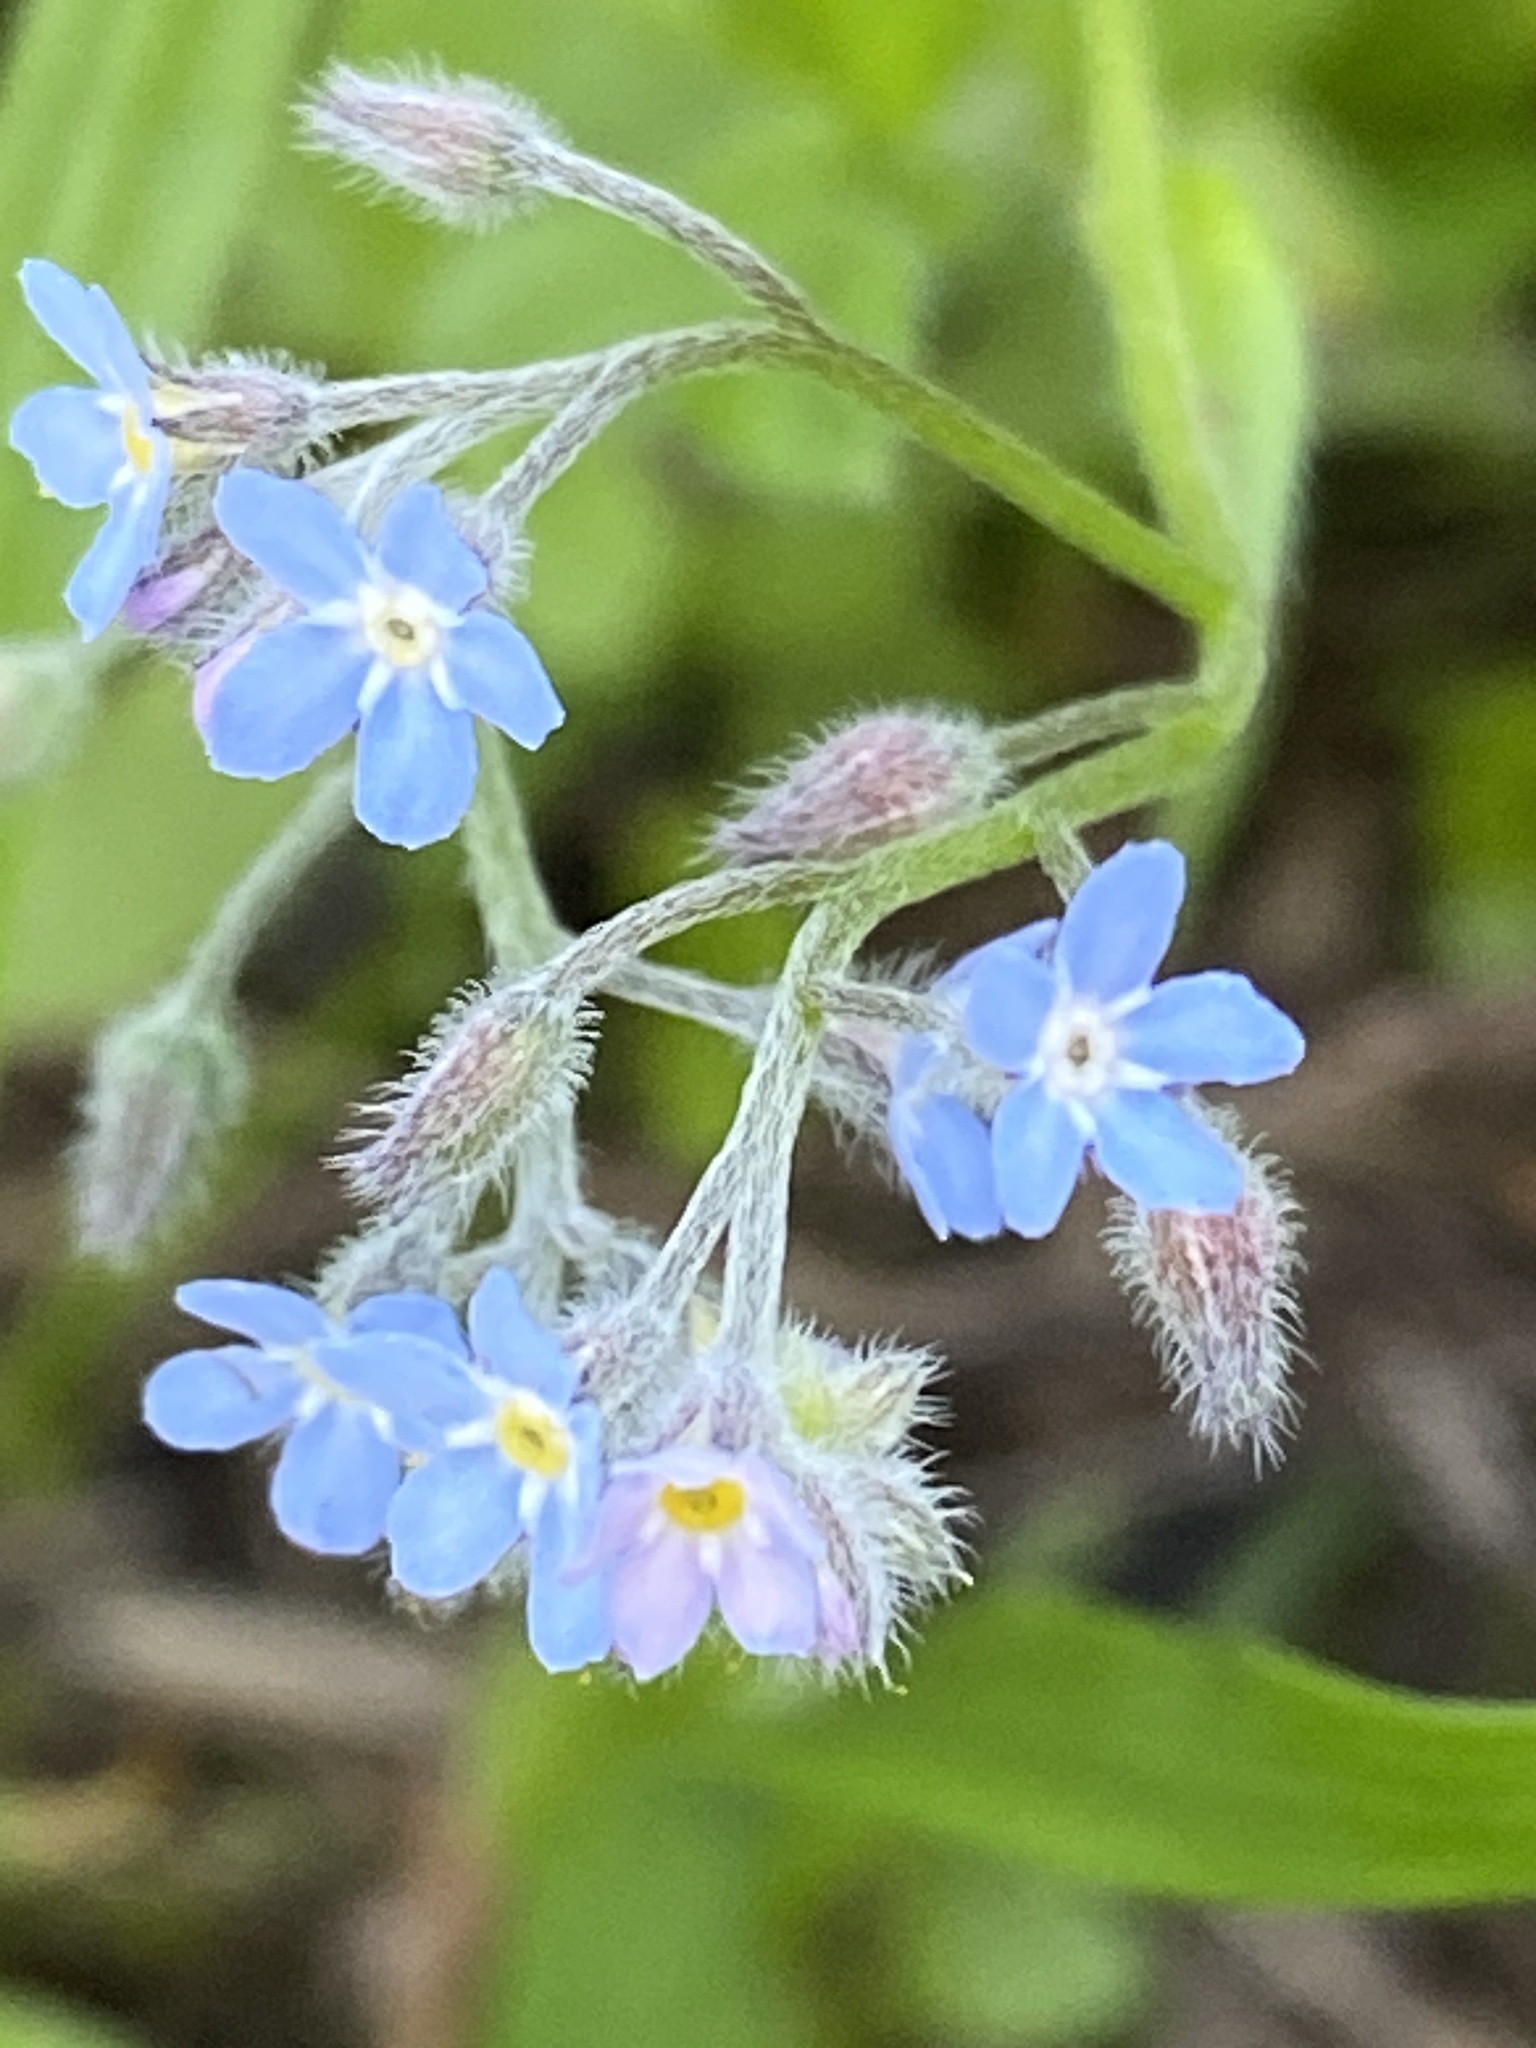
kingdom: Plantae
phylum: Tracheophyta
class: Magnoliopsida
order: Boraginales
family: Boraginaceae
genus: Myosotis
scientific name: Myosotis sylvatica
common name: Wood forget-me-not
